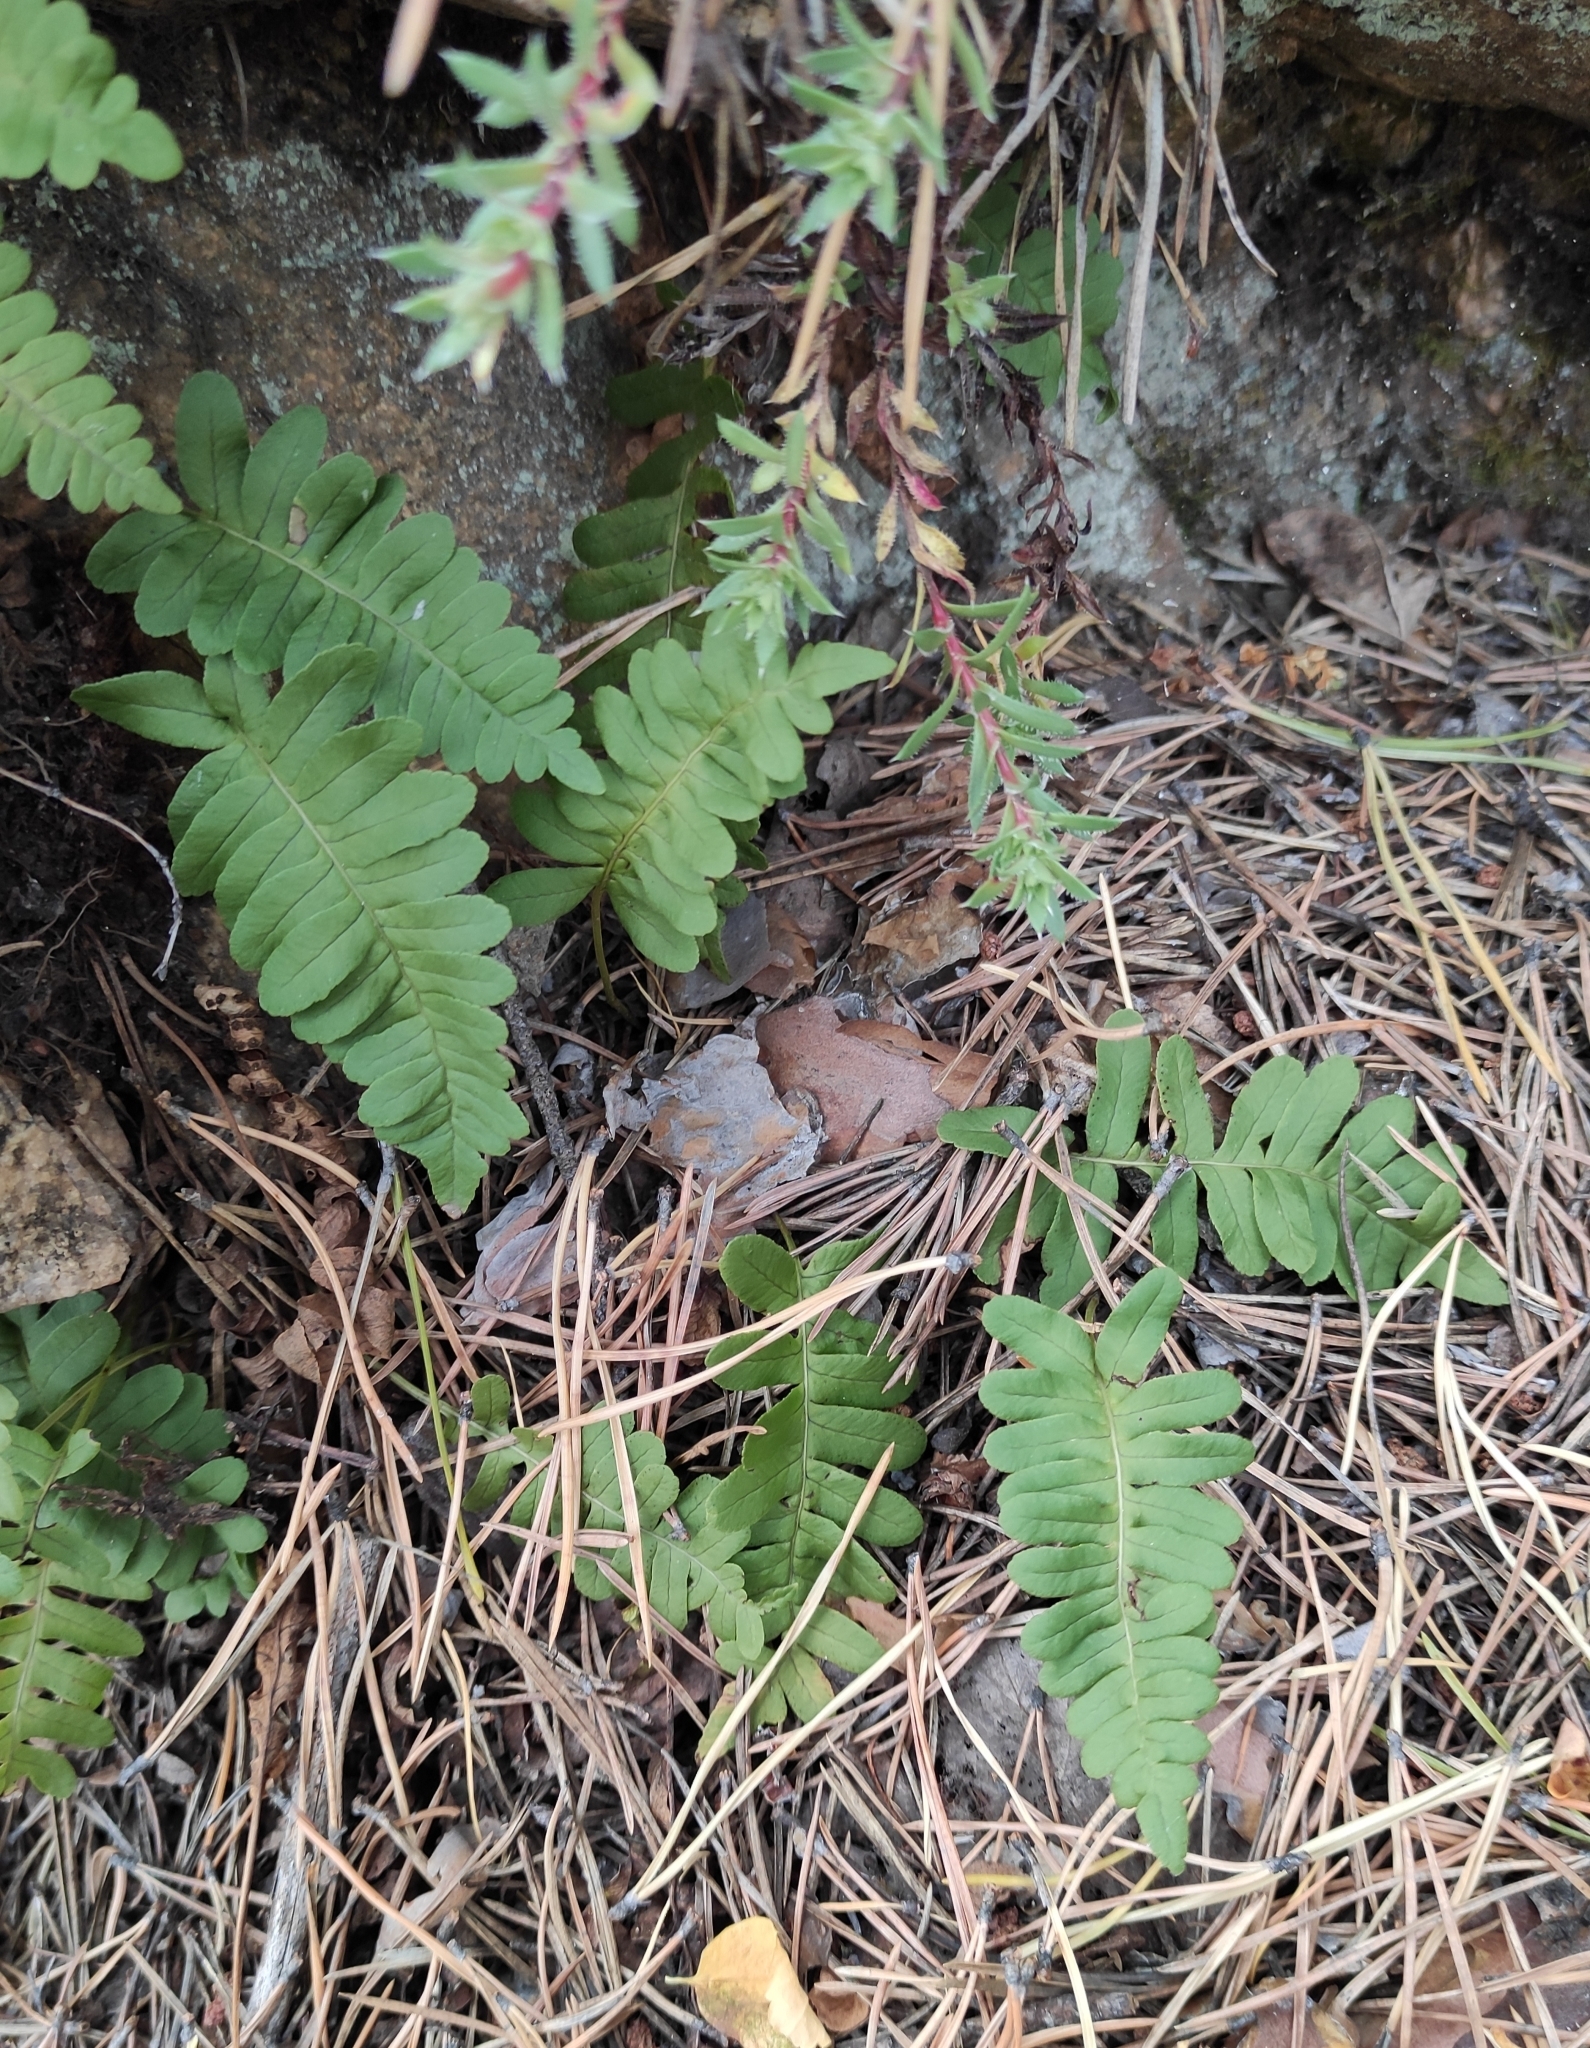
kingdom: Plantae
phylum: Tracheophyta
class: Polypodiopsida
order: Polypodiales
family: Polypodiaceae
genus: Polypodium
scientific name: Polypodium sibiricum
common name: Siberian polypody
